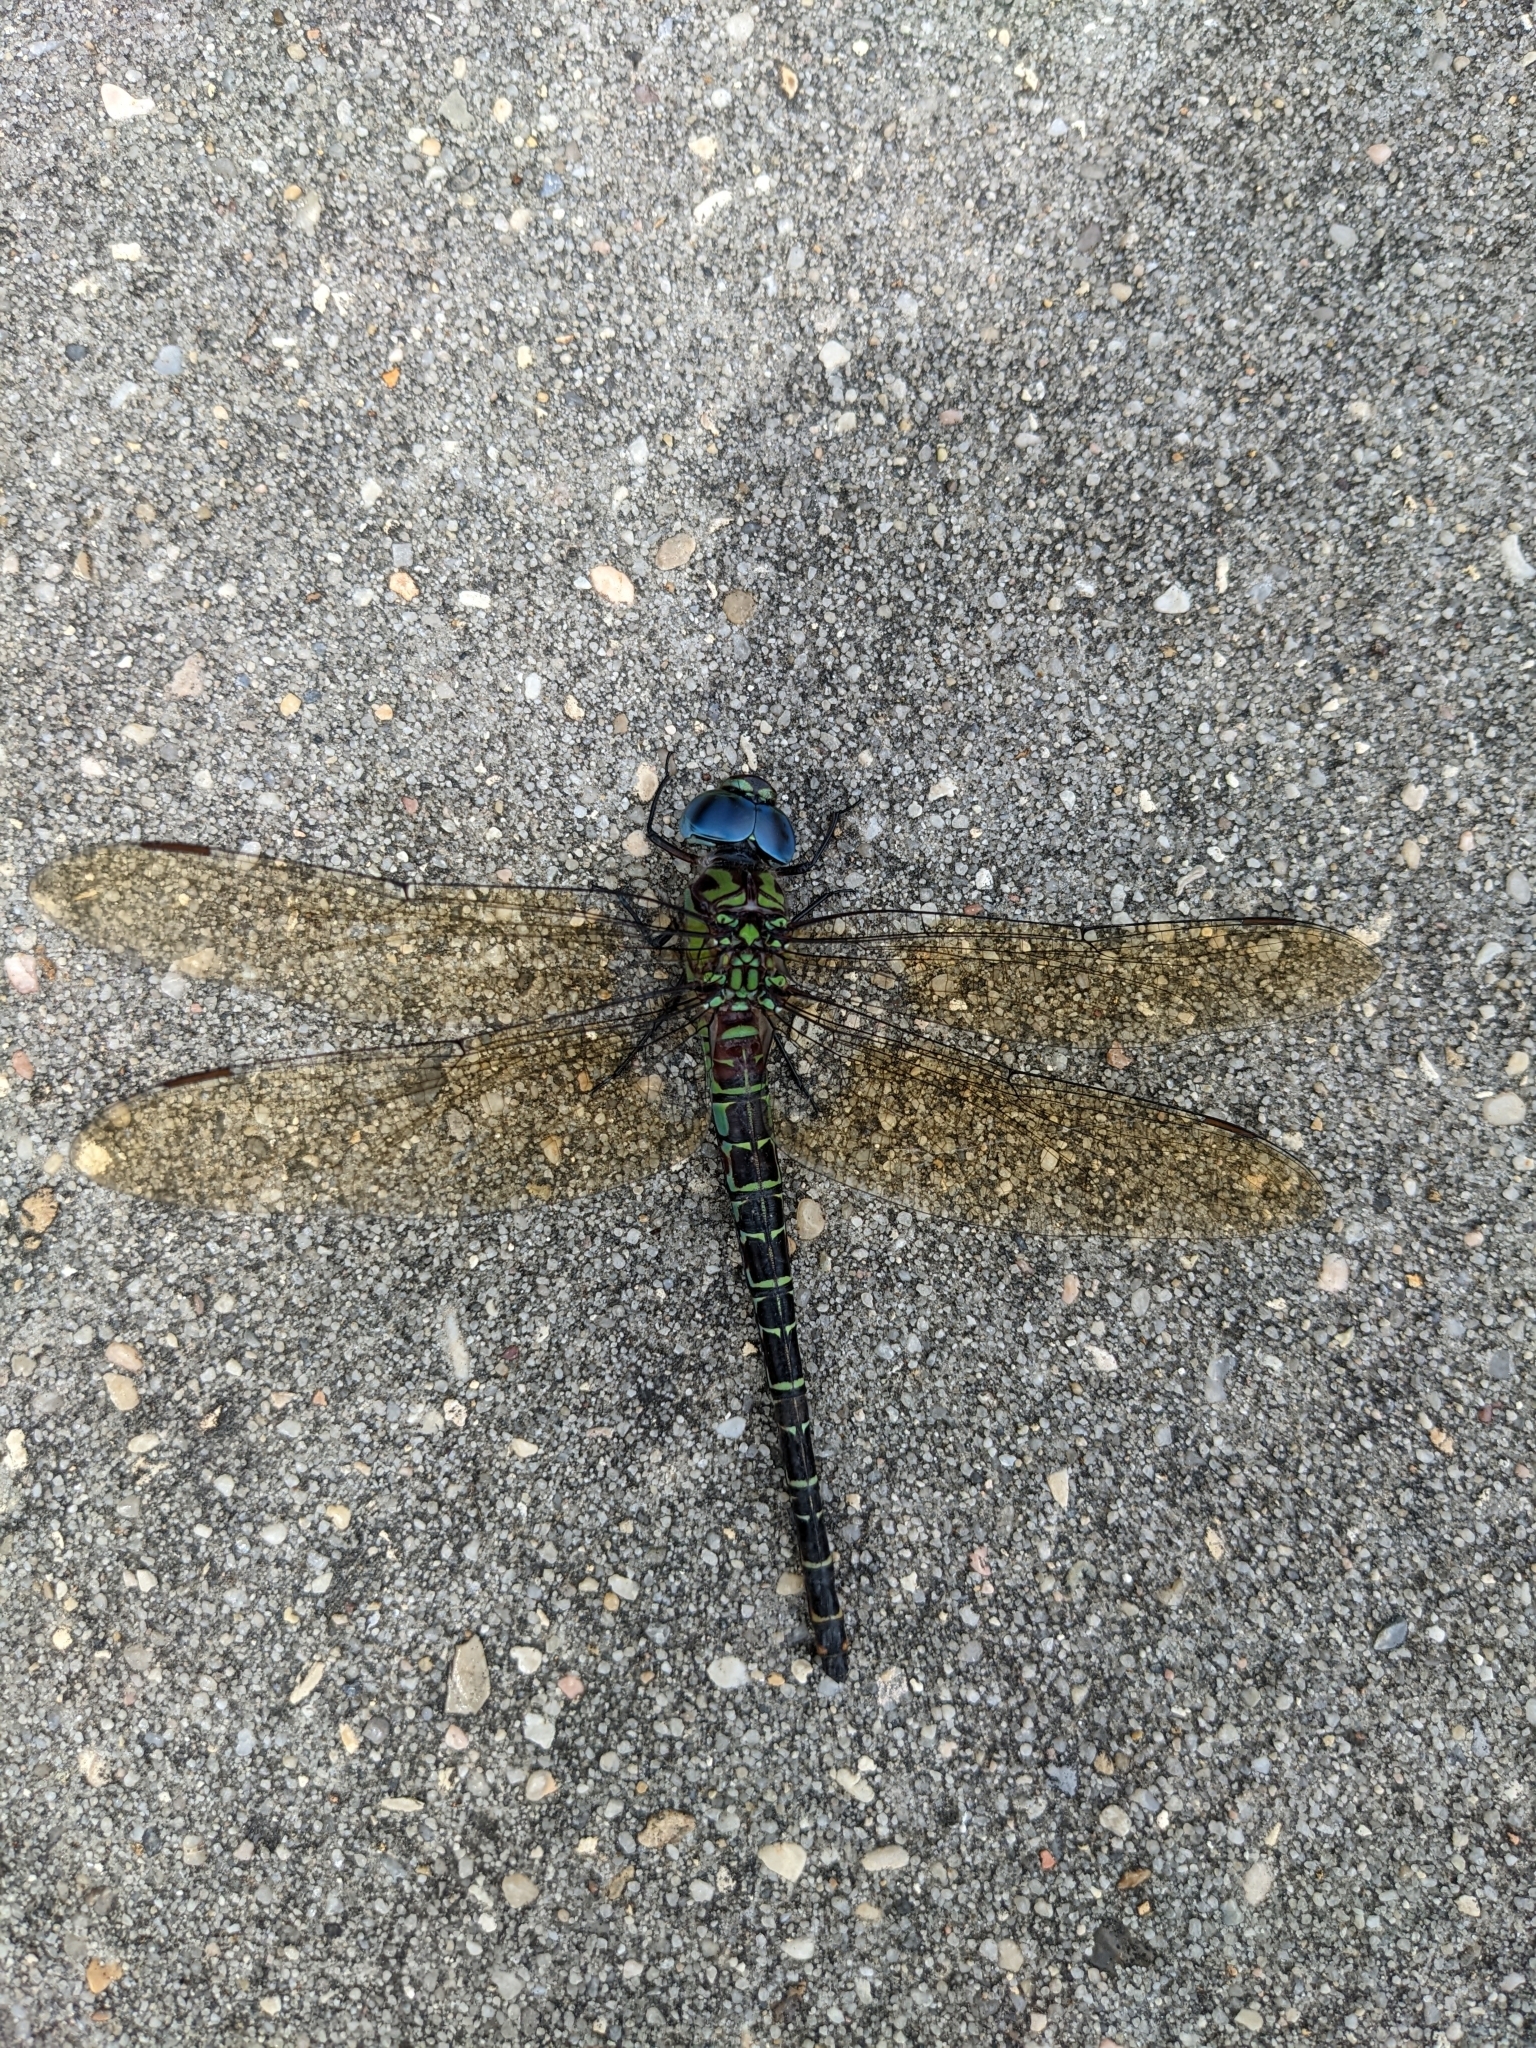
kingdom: Animalia
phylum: Arthropoda
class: Insecta
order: Odonata
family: Aeshnidae
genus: Coryphaeschna
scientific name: Coryphaeschna ingens
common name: Regal darner
